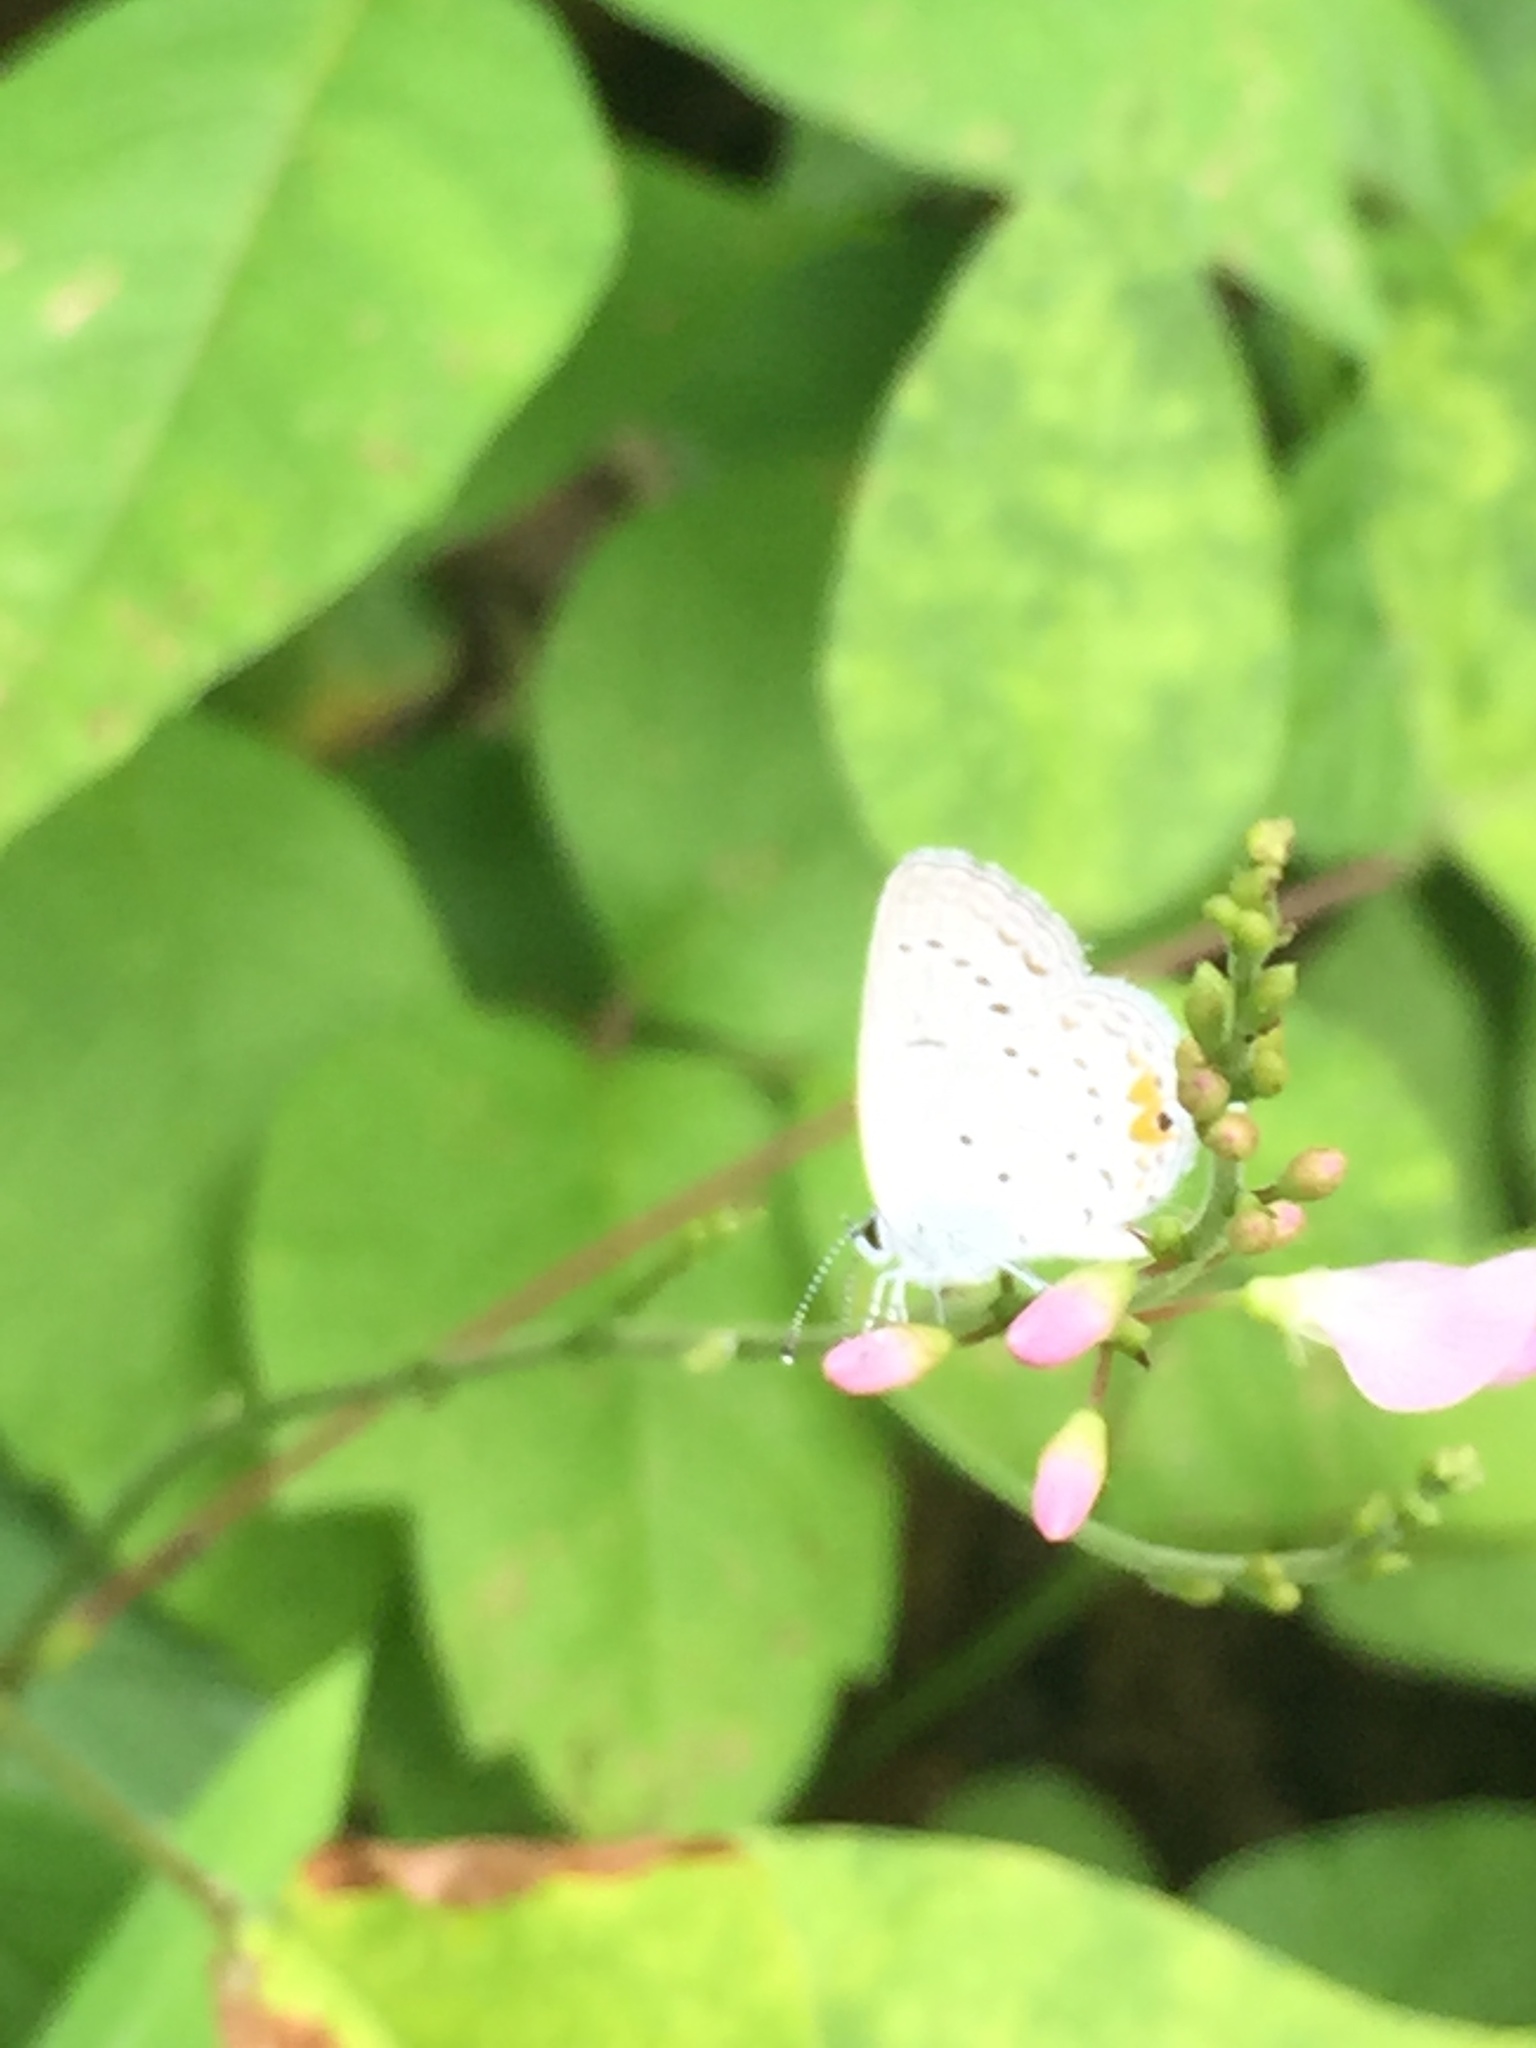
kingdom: Animalia
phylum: Arthropoda
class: Insecta
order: Lepidoptera
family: Lycaenidae
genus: Elkalyce
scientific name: Elkalyce comyntas
